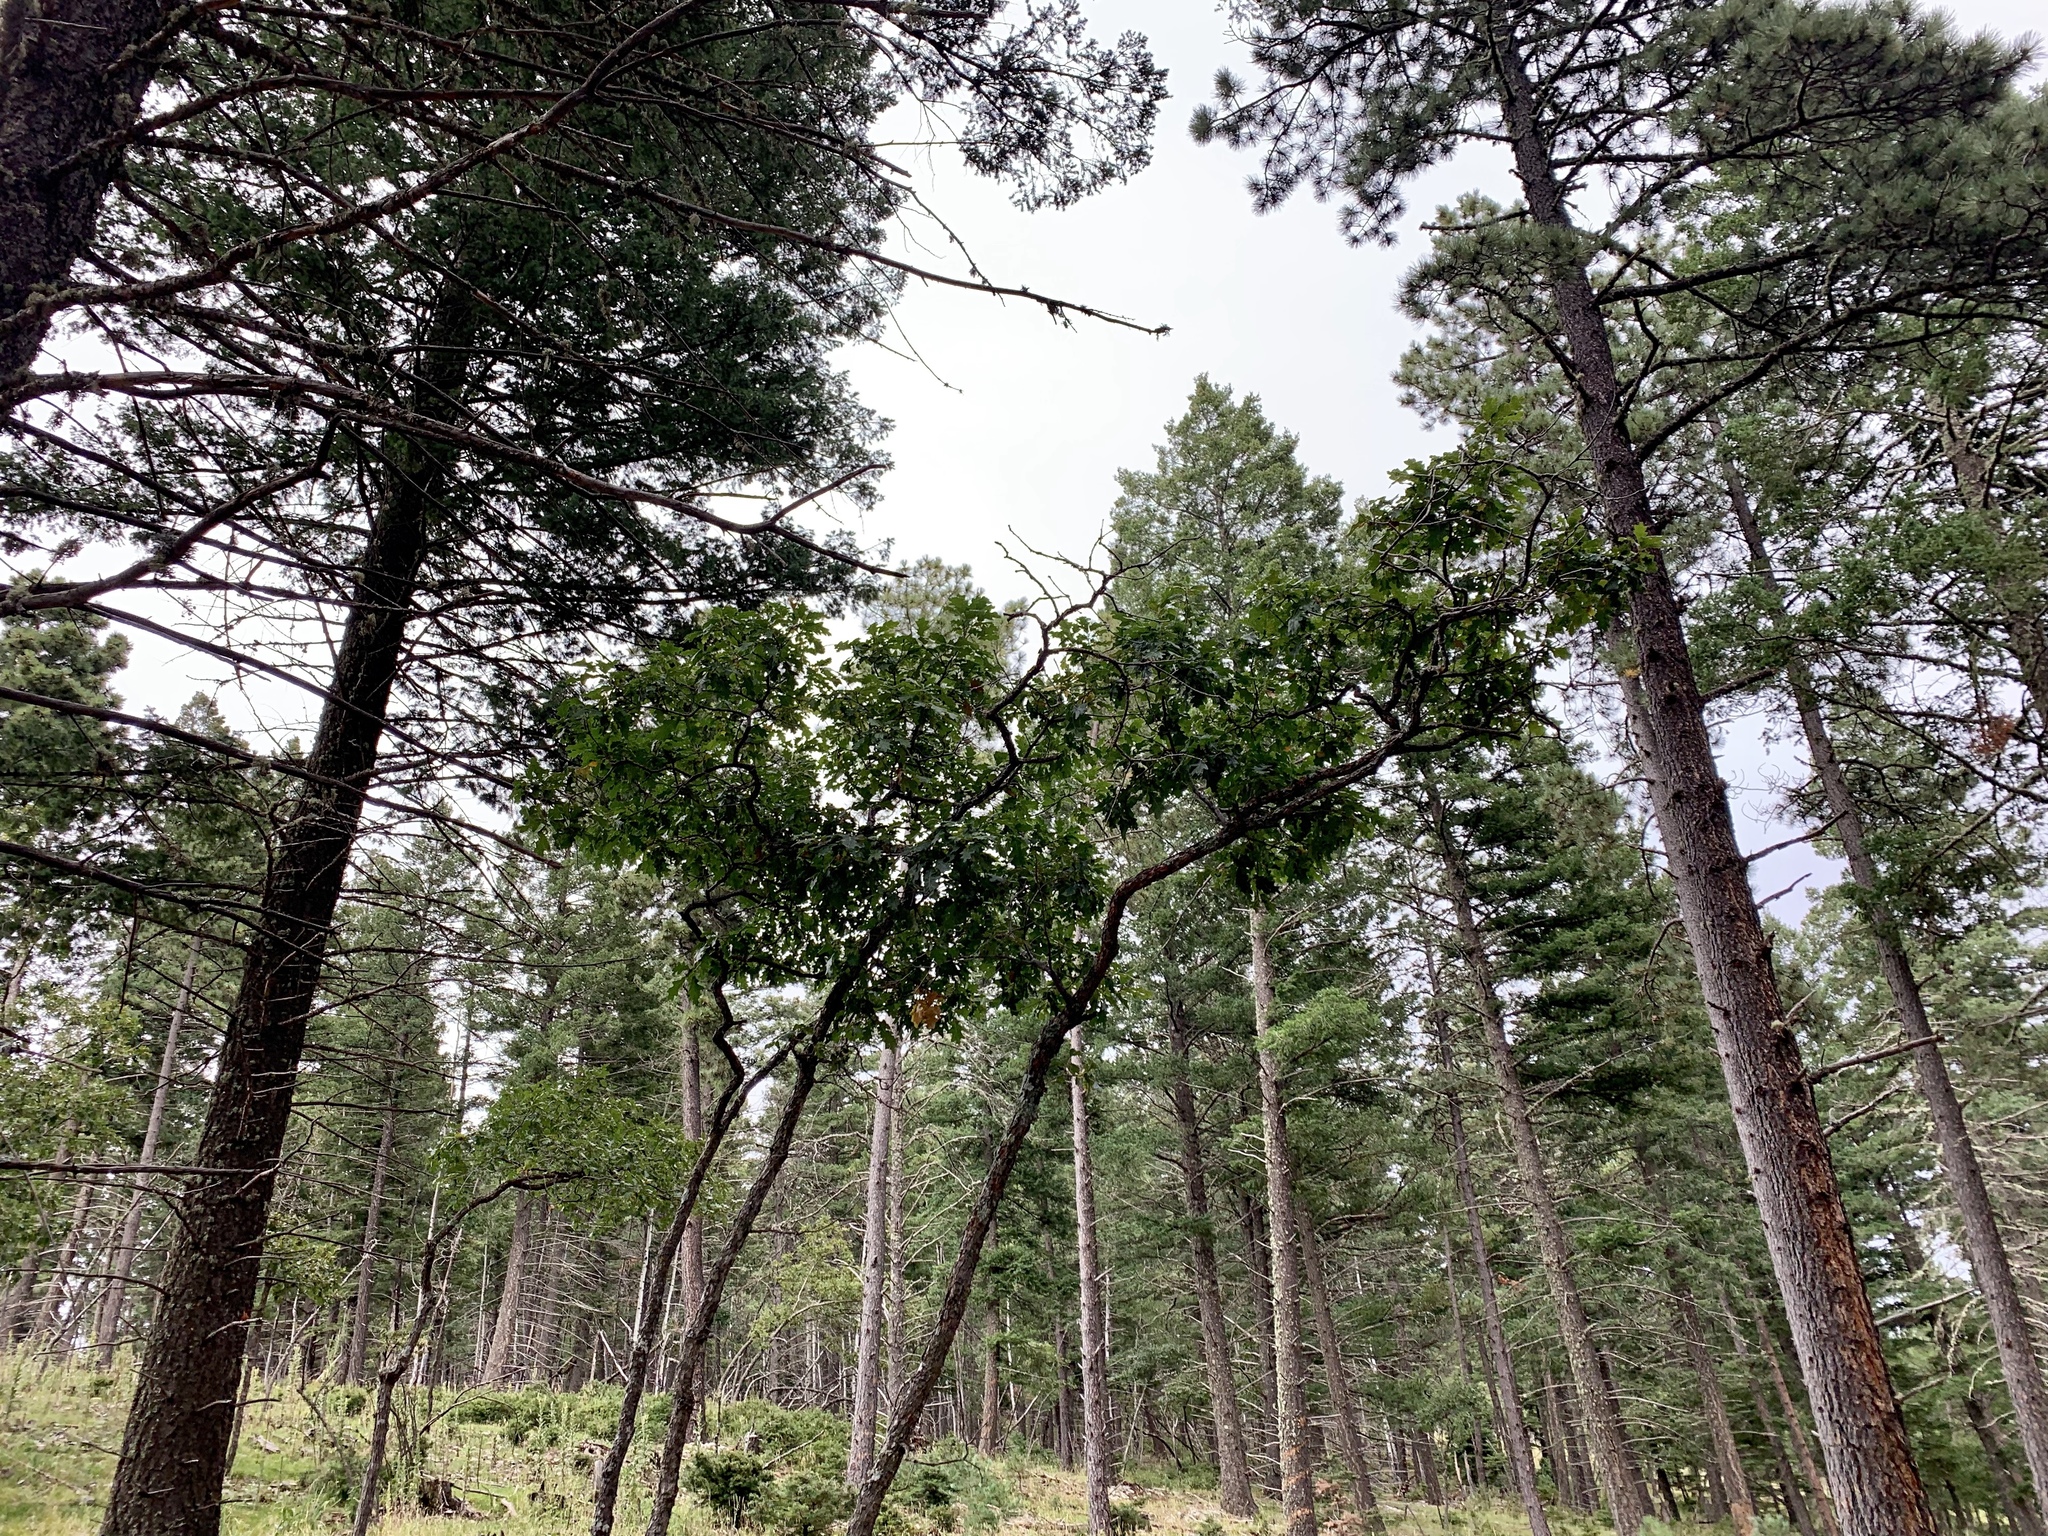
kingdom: Plantae
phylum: Tracheophyta
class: Magnoliopsida
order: Fagales
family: Fagaceae
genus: Quercus
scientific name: Quercus gambelii
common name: Gambel oak
